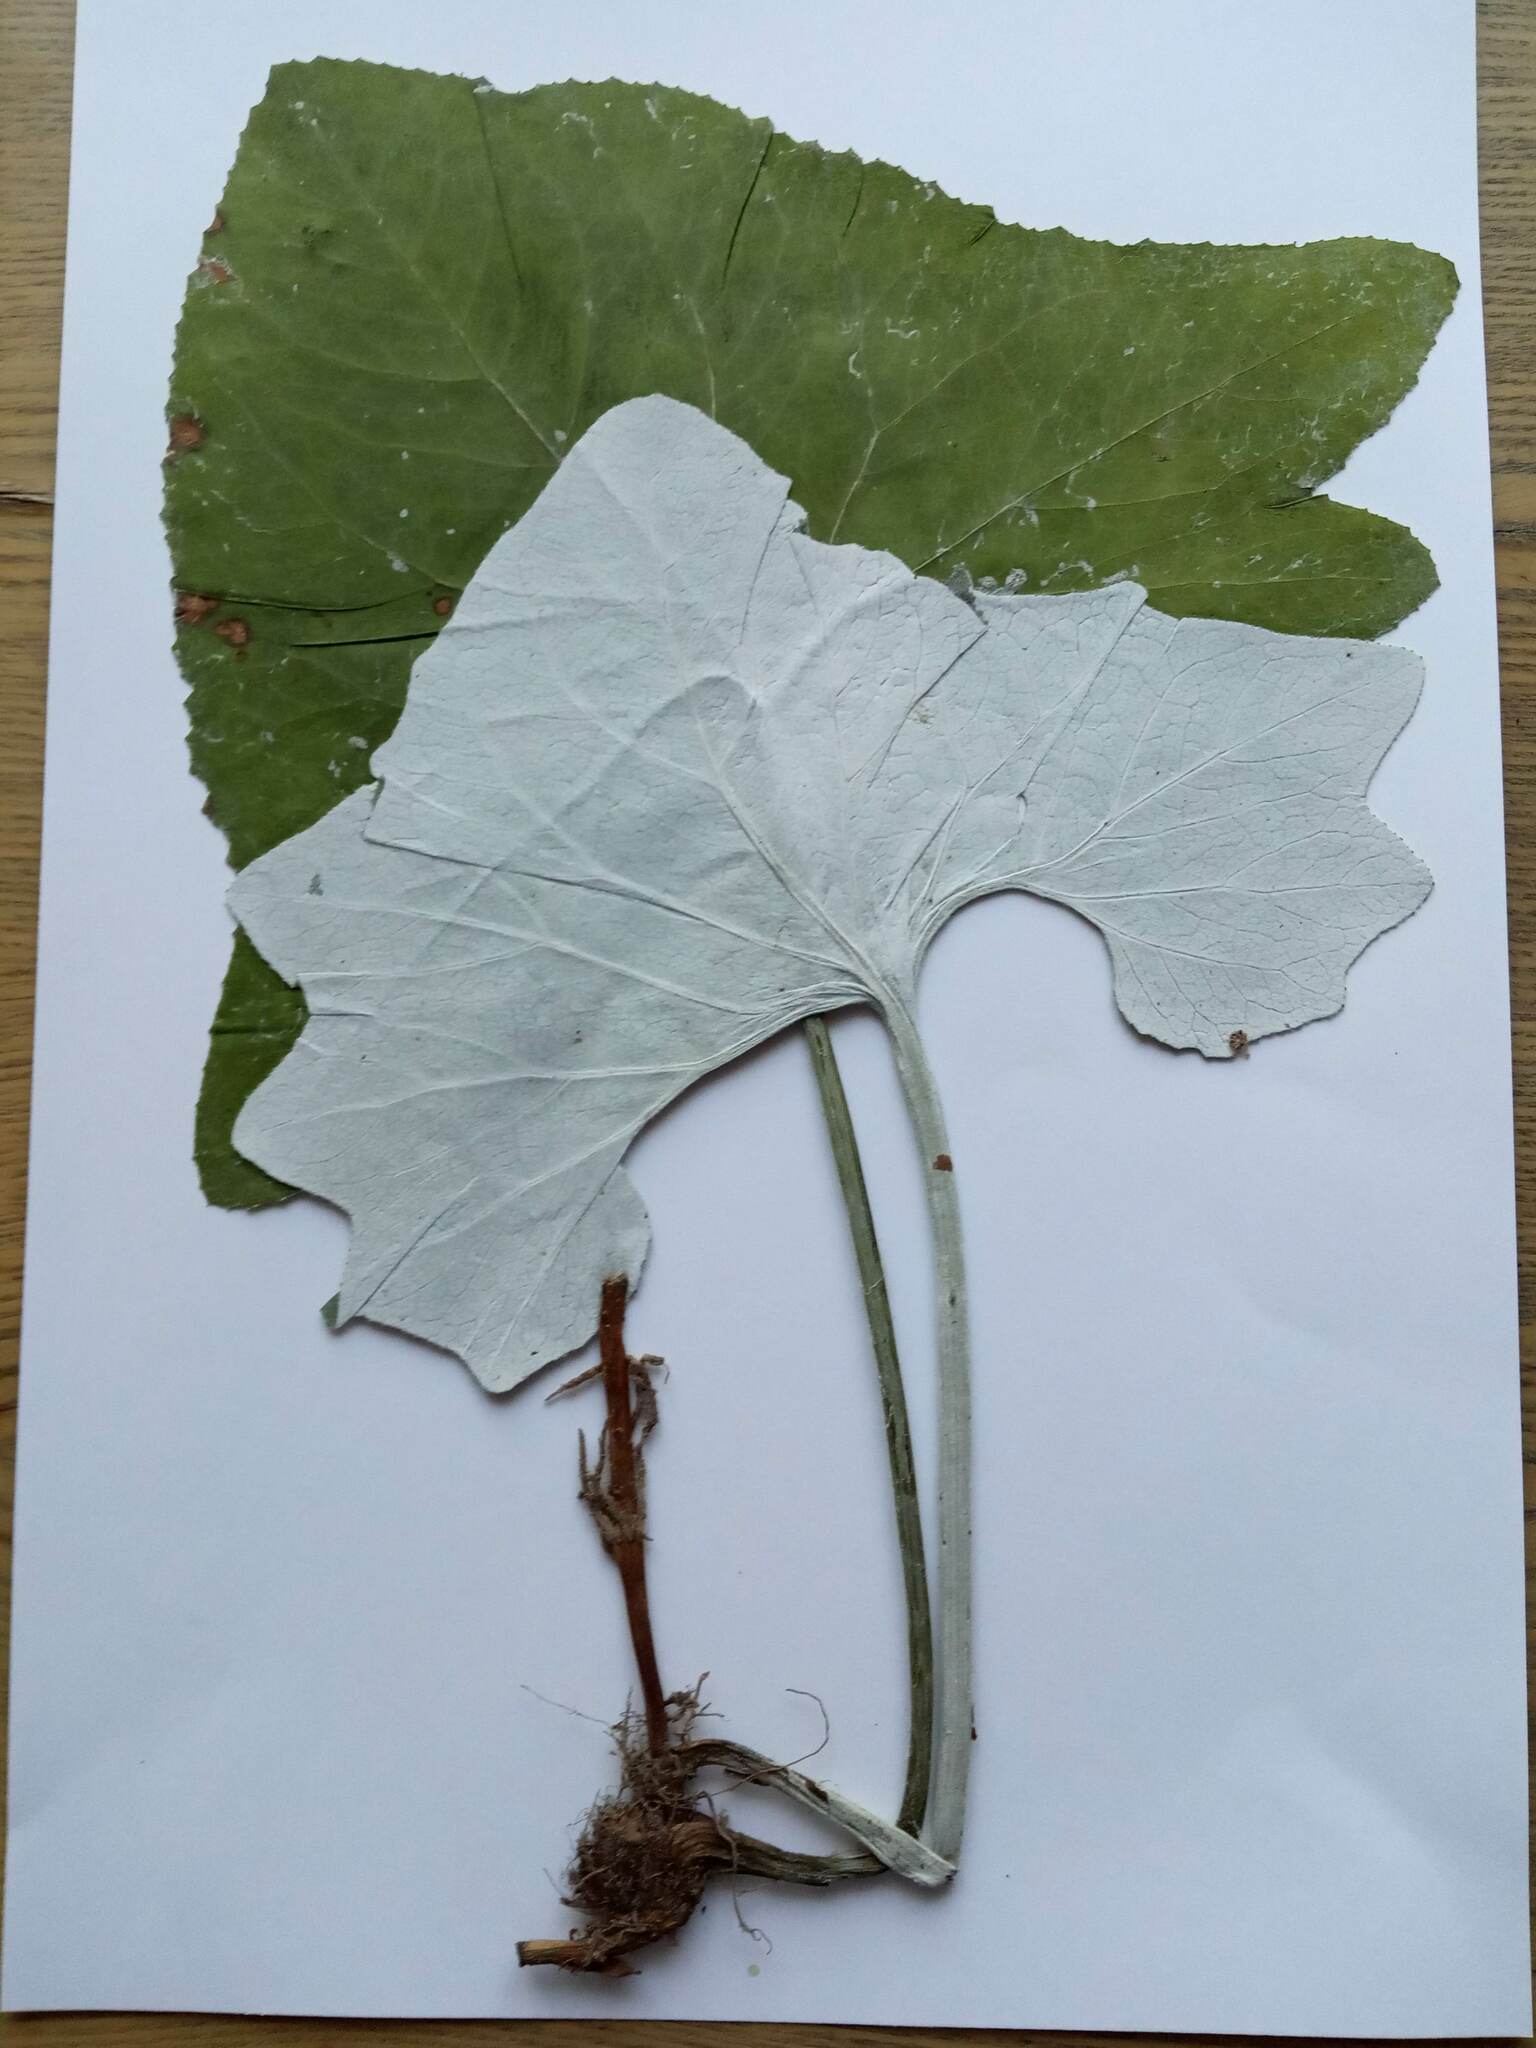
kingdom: Plantae
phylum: Tracheophyta
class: Magnoliopsida
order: Asterales
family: Asteraceae
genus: Petasites
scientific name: Petasites spurius
